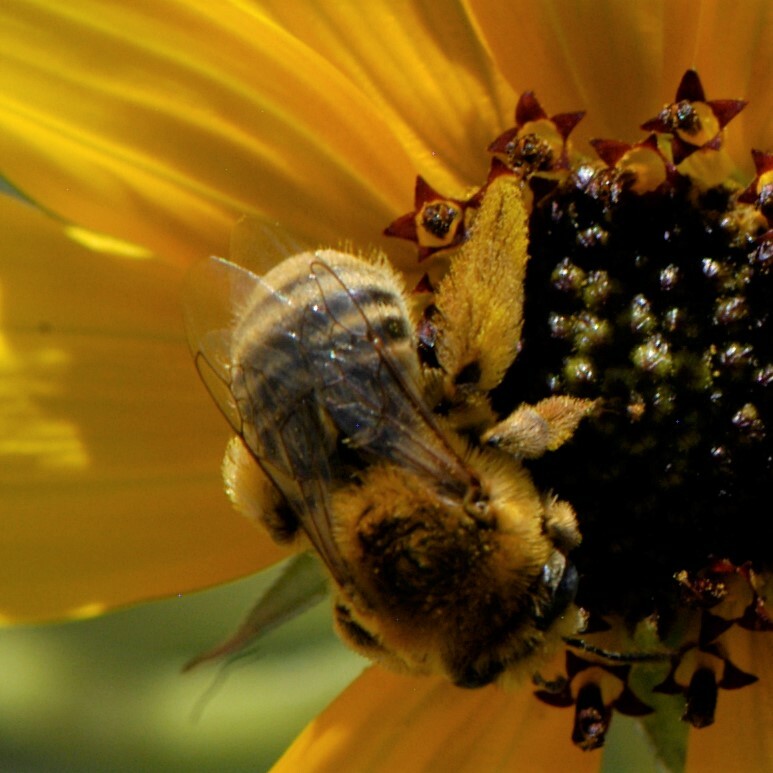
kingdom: Animalia
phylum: Arthropoda
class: Insecta
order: Hymenoptera
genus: Eumelissodes
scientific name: Eumelissodes
